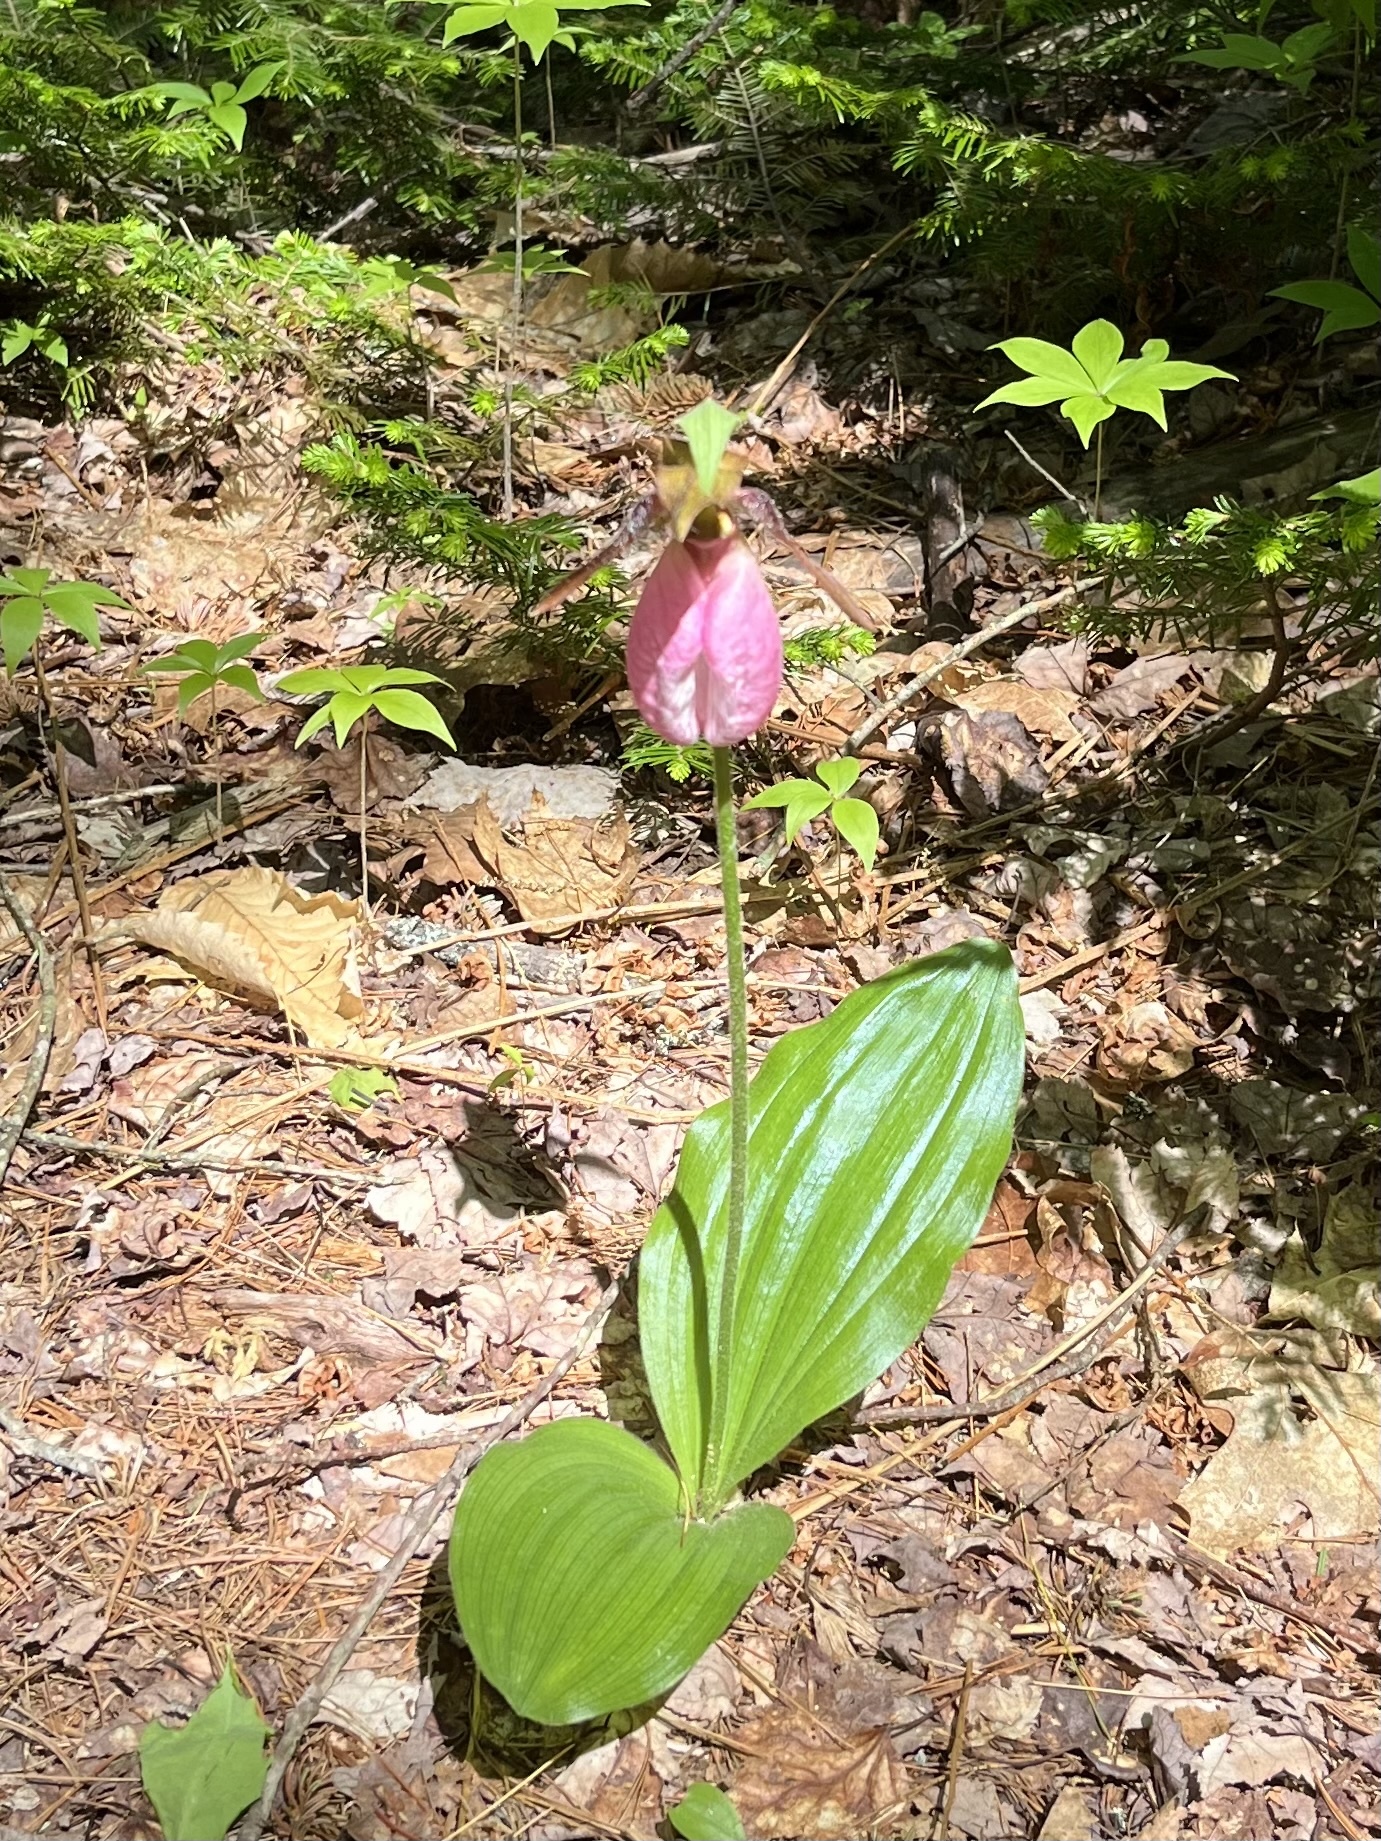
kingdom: Plantae
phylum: Tracheophyta
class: Liliopsida
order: Asparagales
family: Orchidaceae
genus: Cypripedium
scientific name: Cypripedium acaule
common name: Pink lady's-slipper
